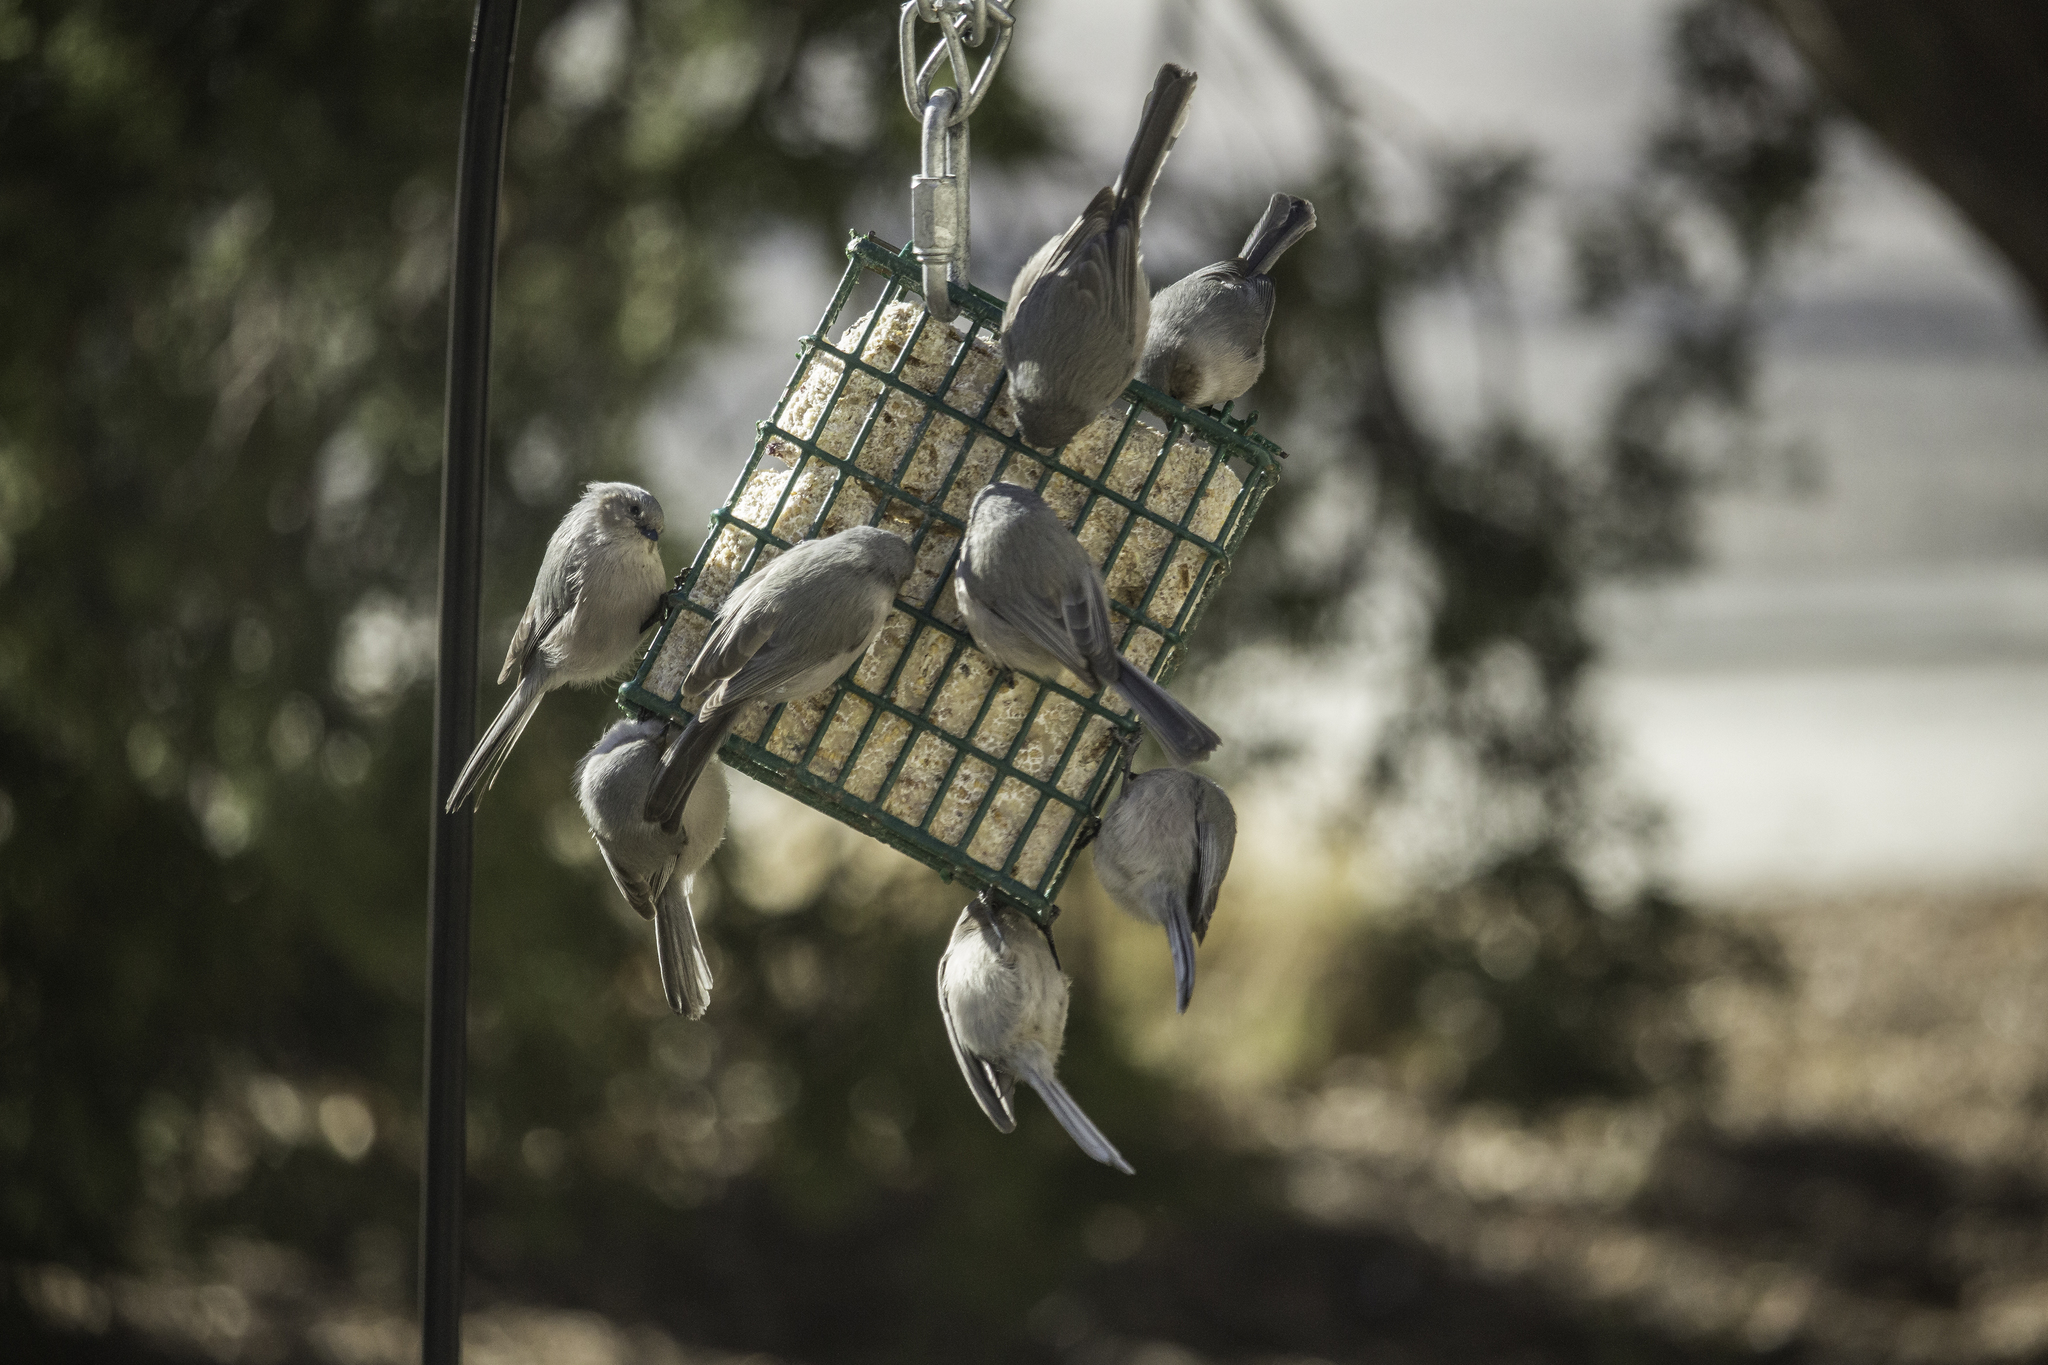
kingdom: Animalia
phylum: Chordata
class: Aves
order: Passeriformes
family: Aegithalidae
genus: Psaltriparus
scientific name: Psaltriparus minimus
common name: American bushtit
